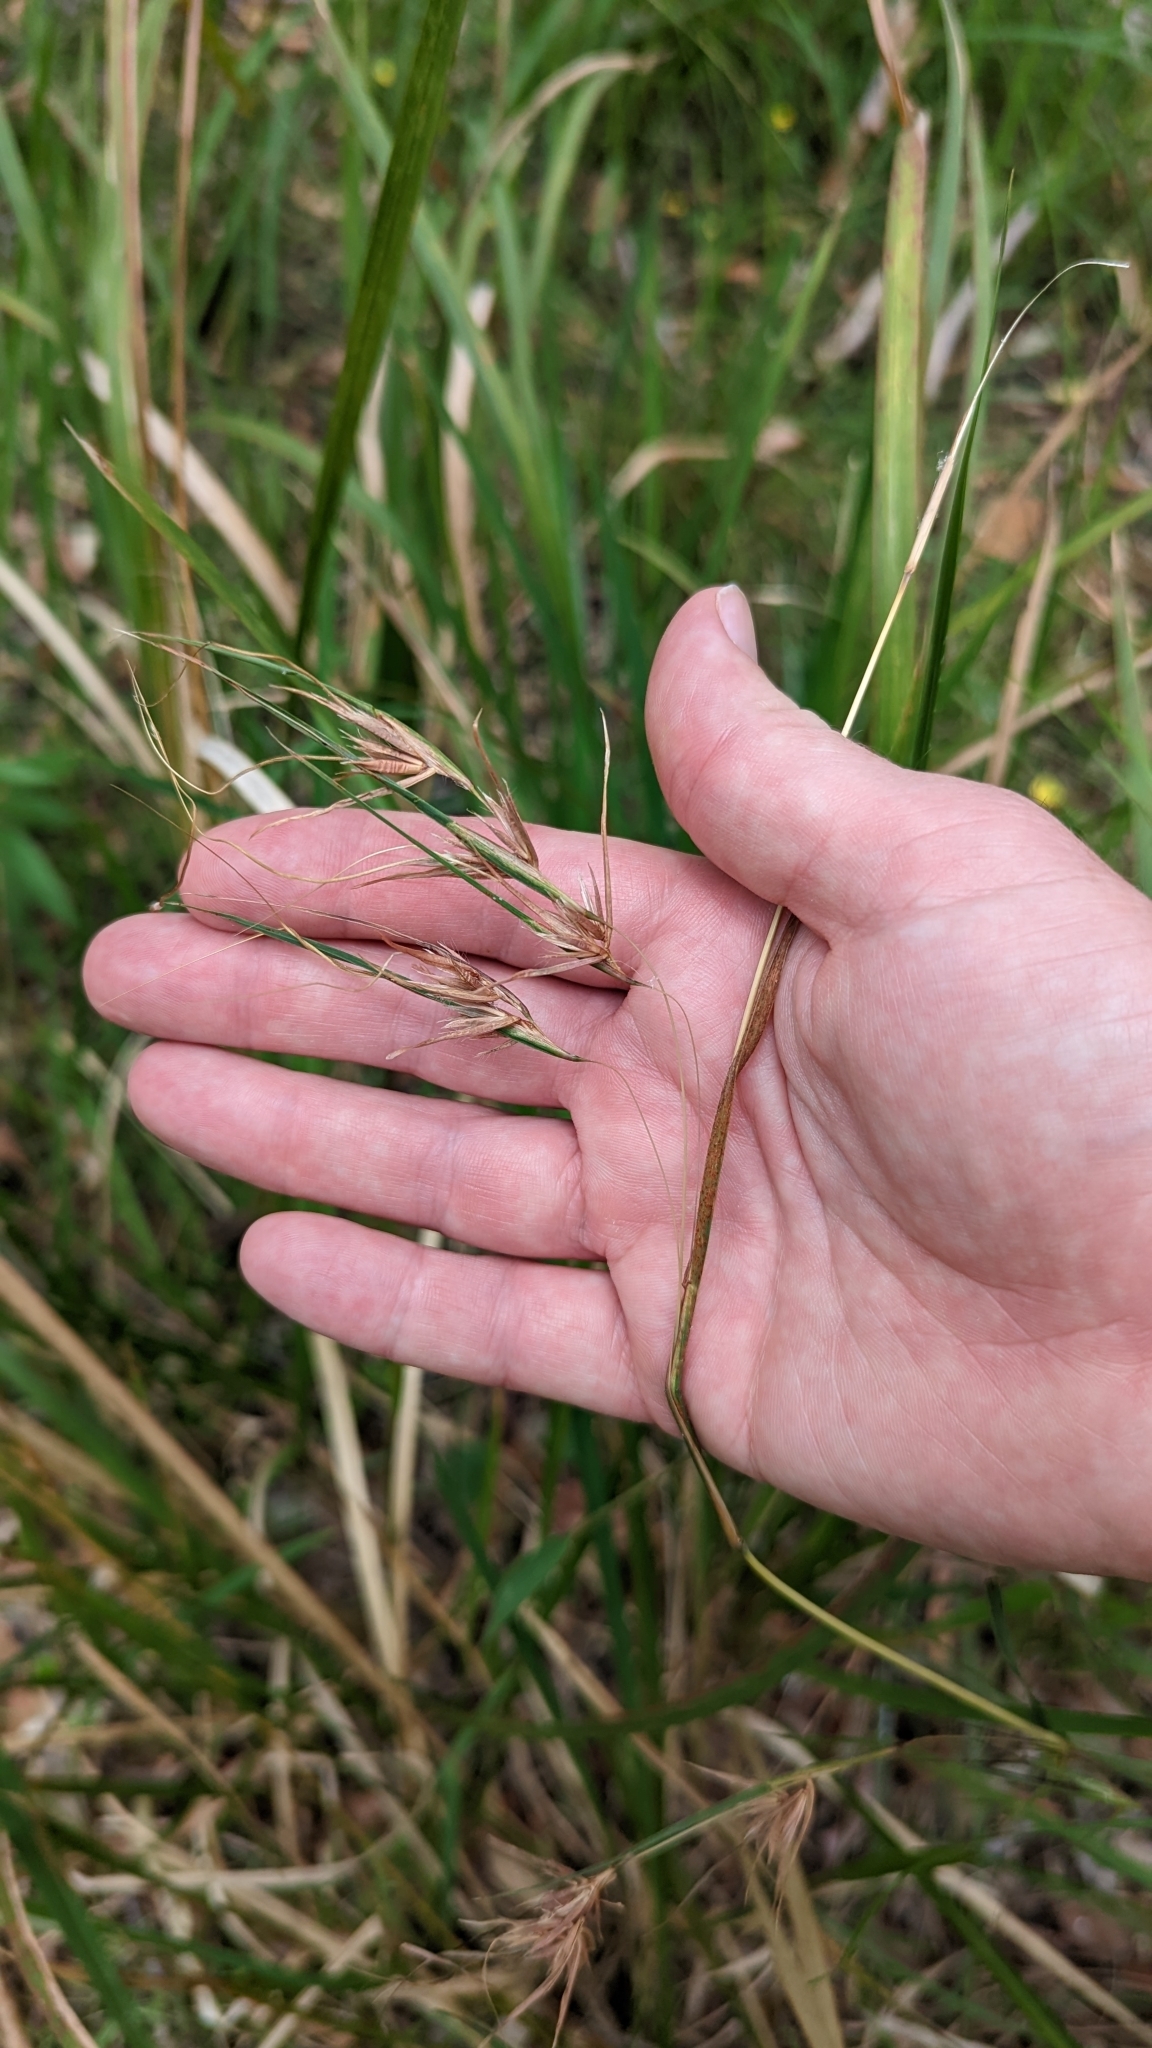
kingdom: Plantae
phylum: Tracheophyta
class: Liliopsida
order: Poales
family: Poaceae
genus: Themeda
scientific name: Themeda triandra
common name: Kangaroo grass
